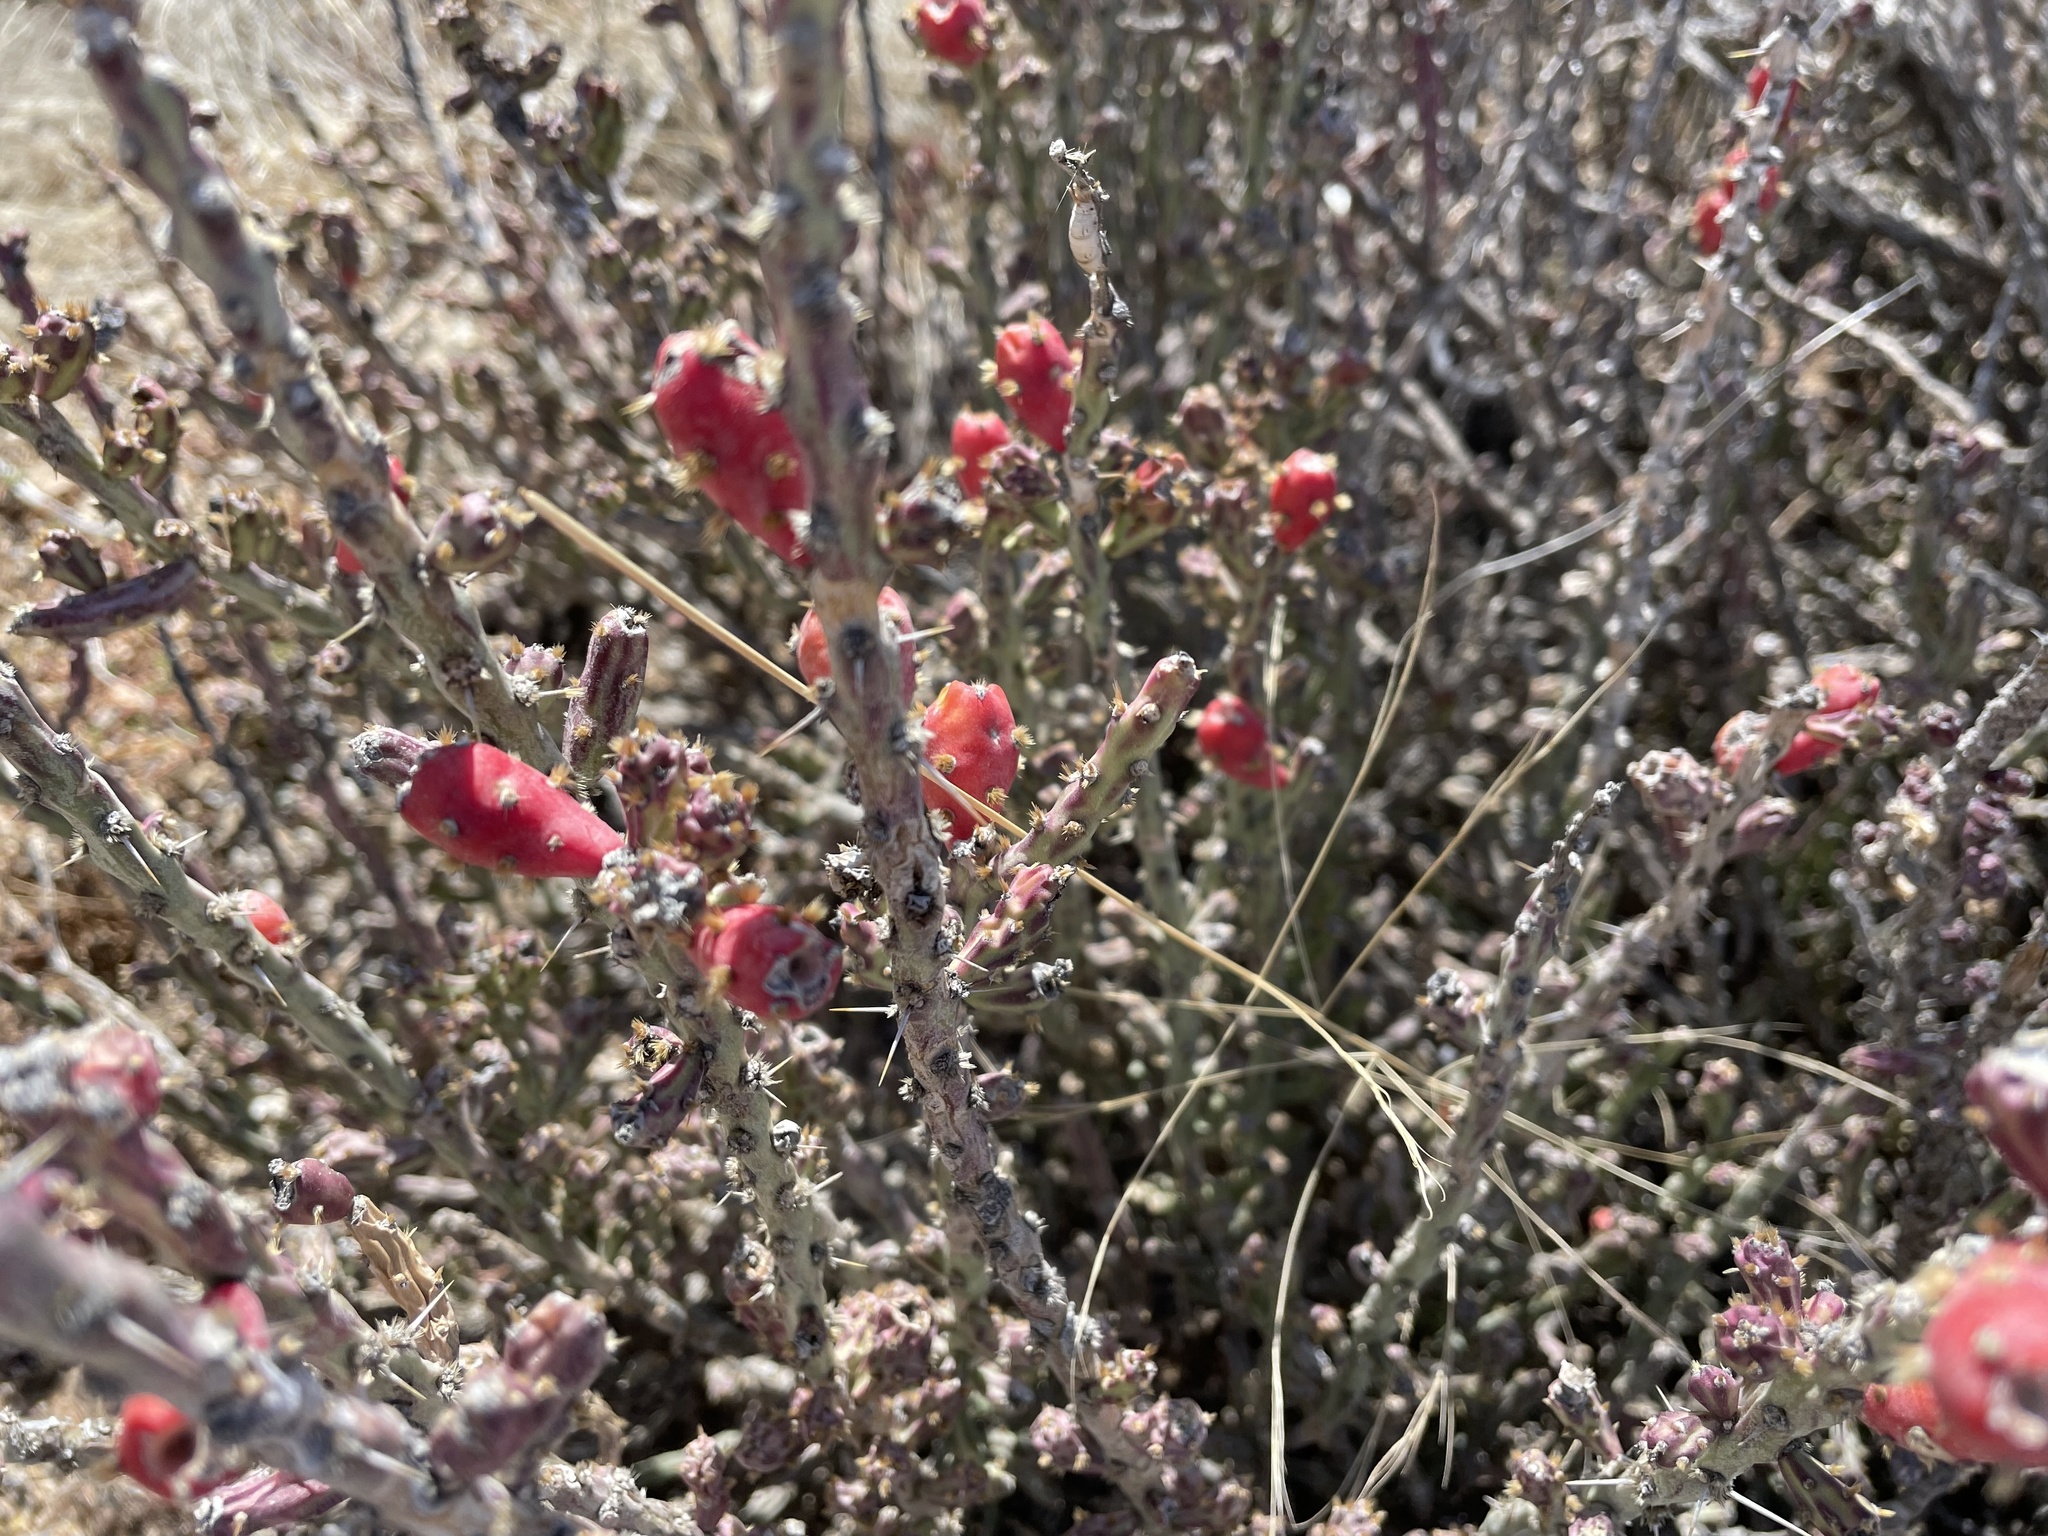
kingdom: Plantae
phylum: Tracheophyta
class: Magnoliopsida
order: Caryophyllales
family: Cactaceae
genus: Cylindropuntia
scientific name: Cylindropuntia leptocaulis
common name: Christmas cactus
